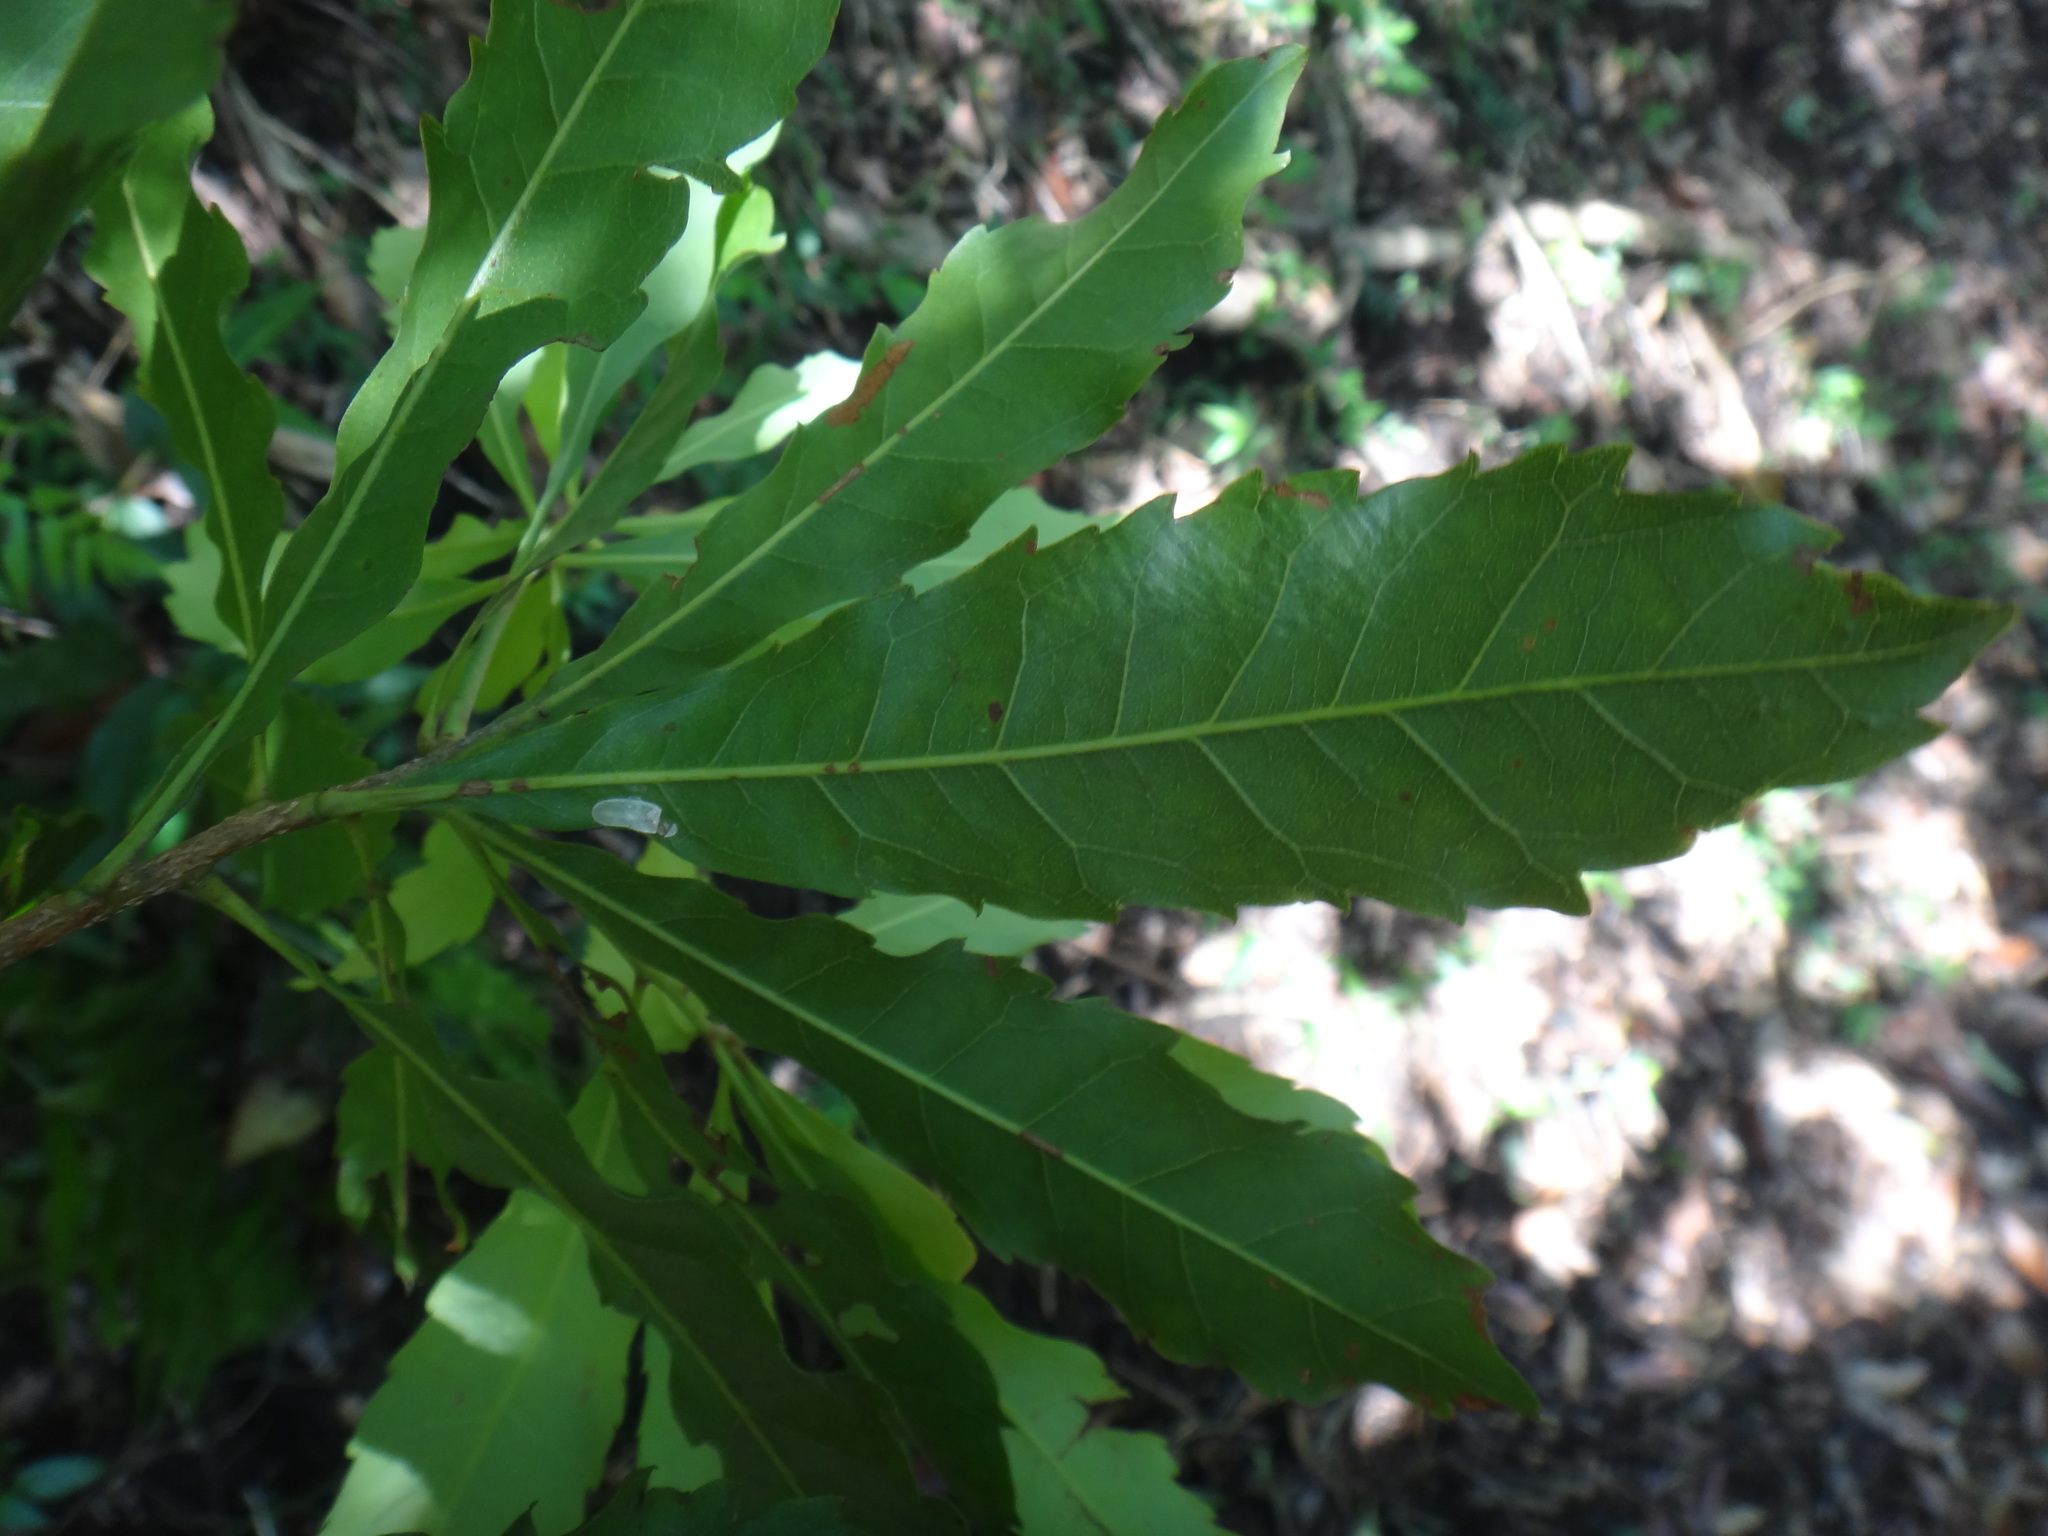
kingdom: Plantae
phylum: Tracheophyta
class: Magnoliopsida
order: Fagales
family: Myricaceae
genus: Morella
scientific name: Morella rubra
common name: Red bayberry
